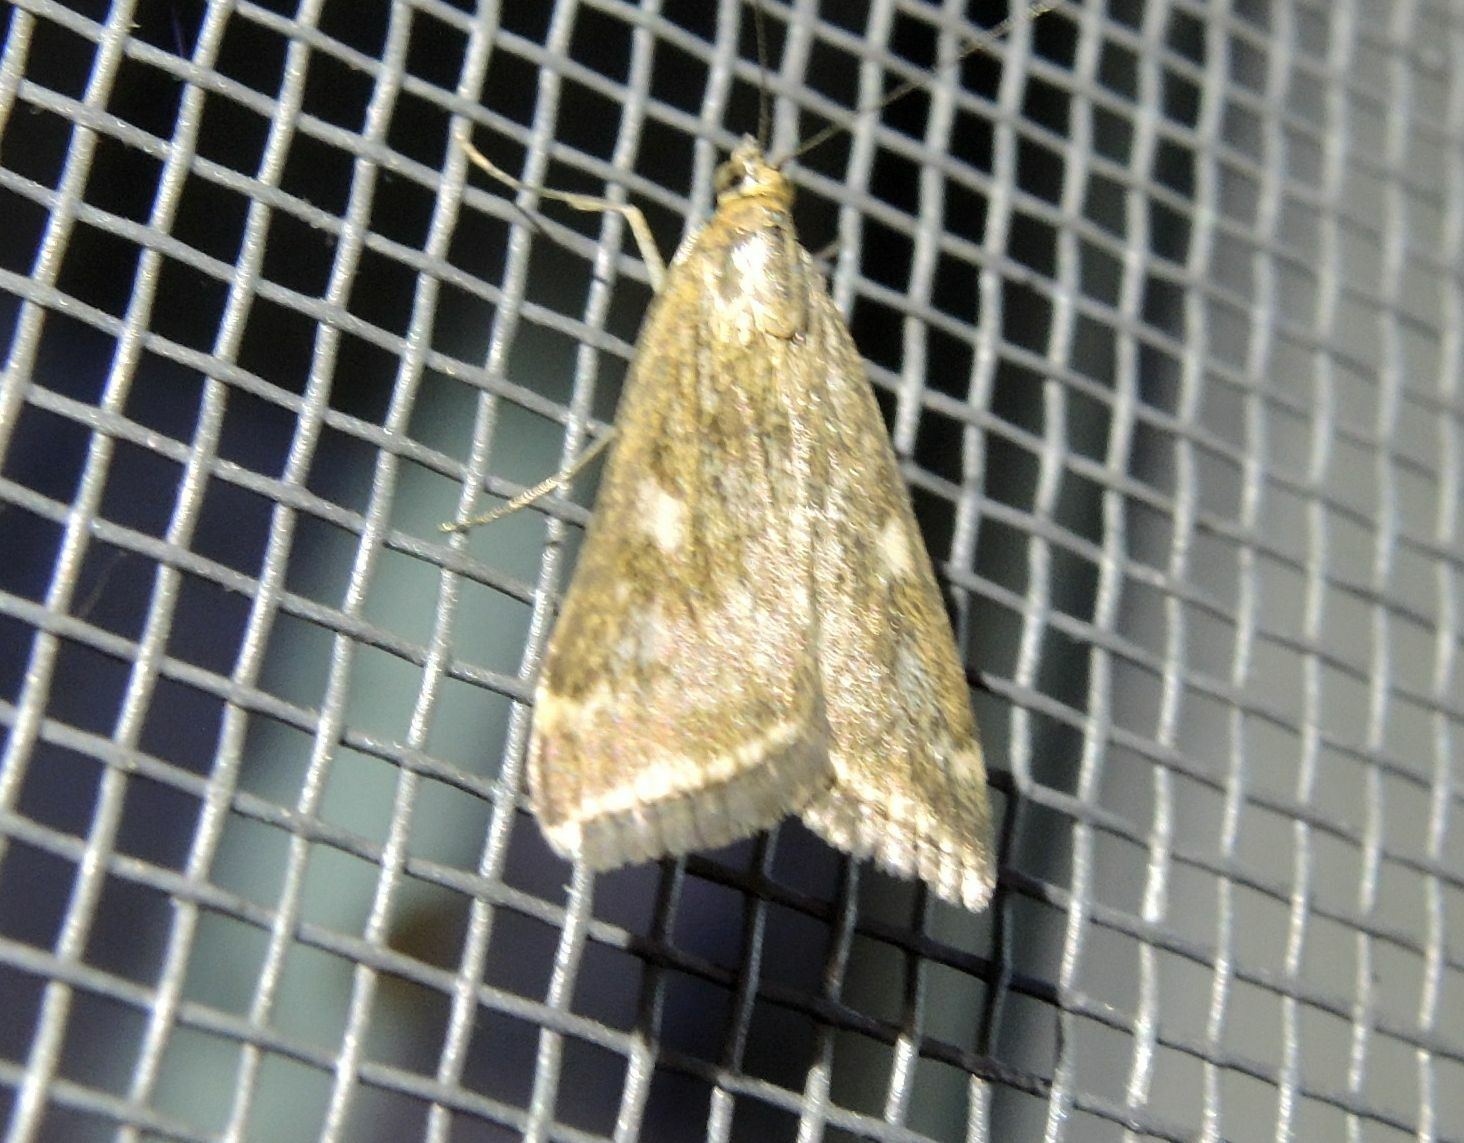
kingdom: Animalia
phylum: Arthropoda
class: Insecta
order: Lepidoptera
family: Crambidae
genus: Loxostege
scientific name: Loxostege sticticalis
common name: Crambid moth
